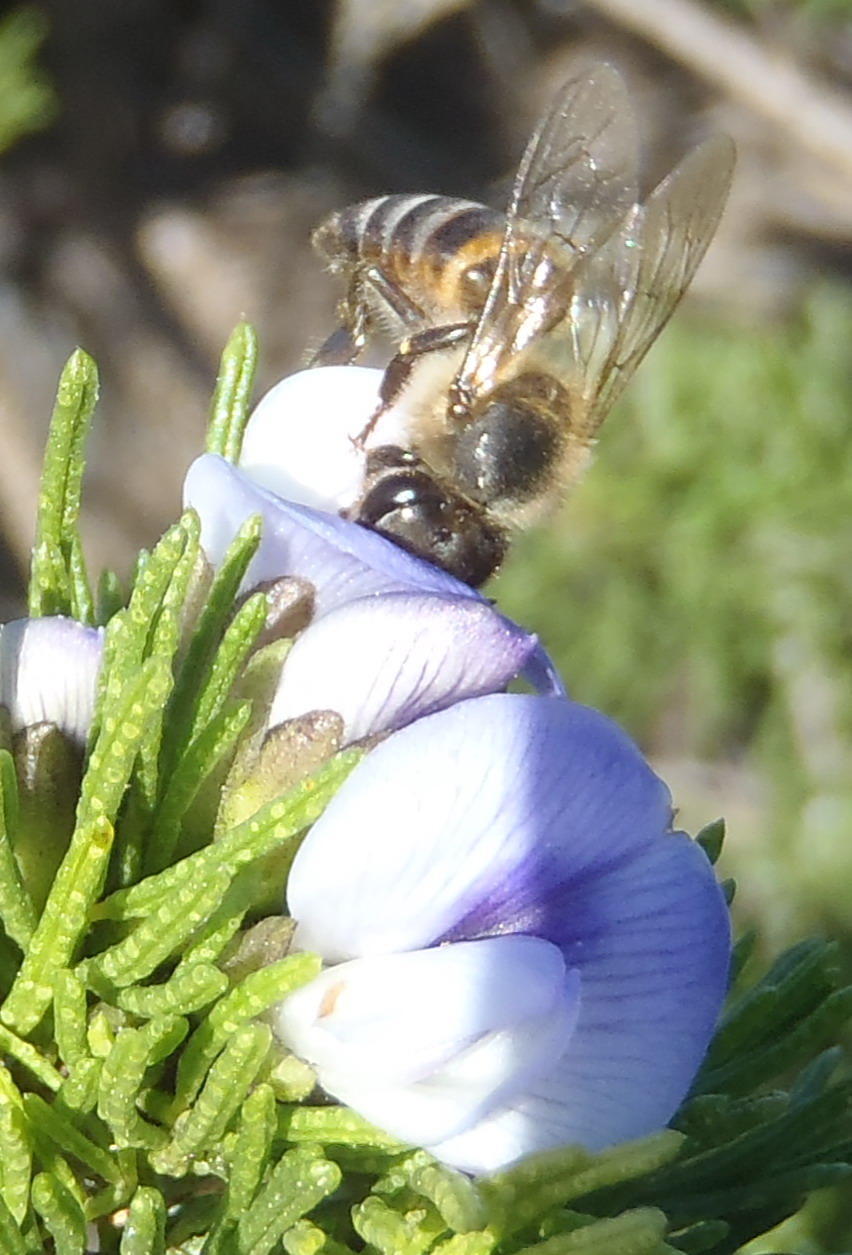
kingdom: Animalia
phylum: Arthropoda
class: Insecta
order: Hymenoptera
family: Apidae
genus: Apis
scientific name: Apis mellifera
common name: Honey bee
